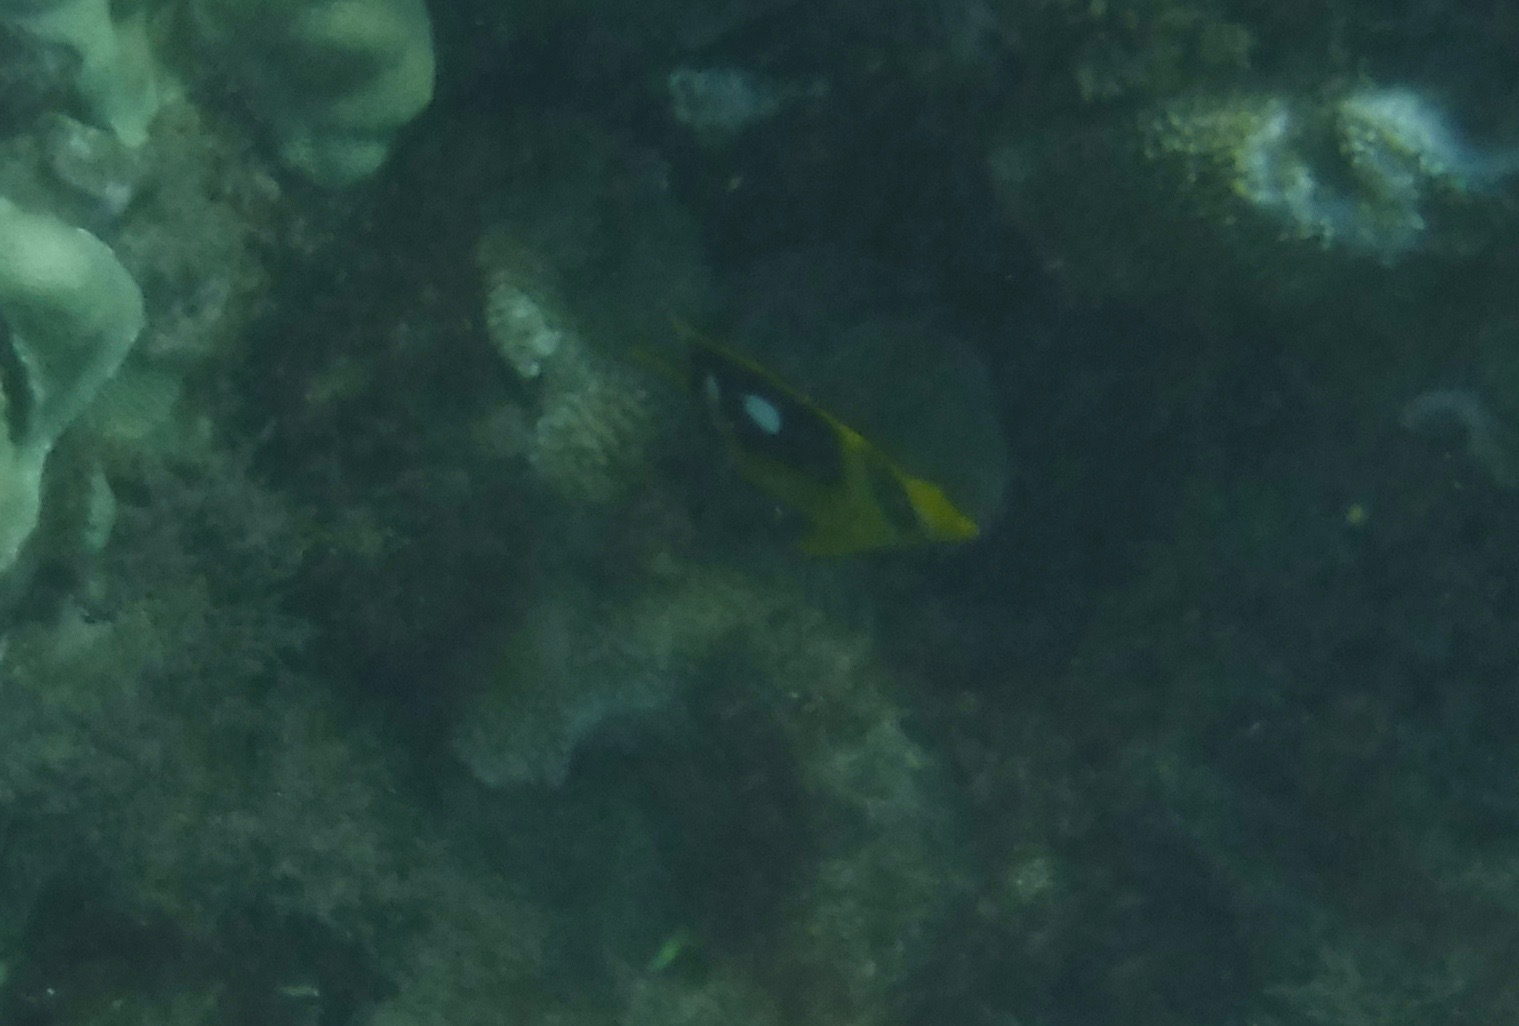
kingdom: Animalia
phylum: Chordata
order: Perciformes
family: Chaetodontidae
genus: Chaetodon
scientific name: Chaetodon quadrimaculatus
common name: Fourspot butterflyfish
